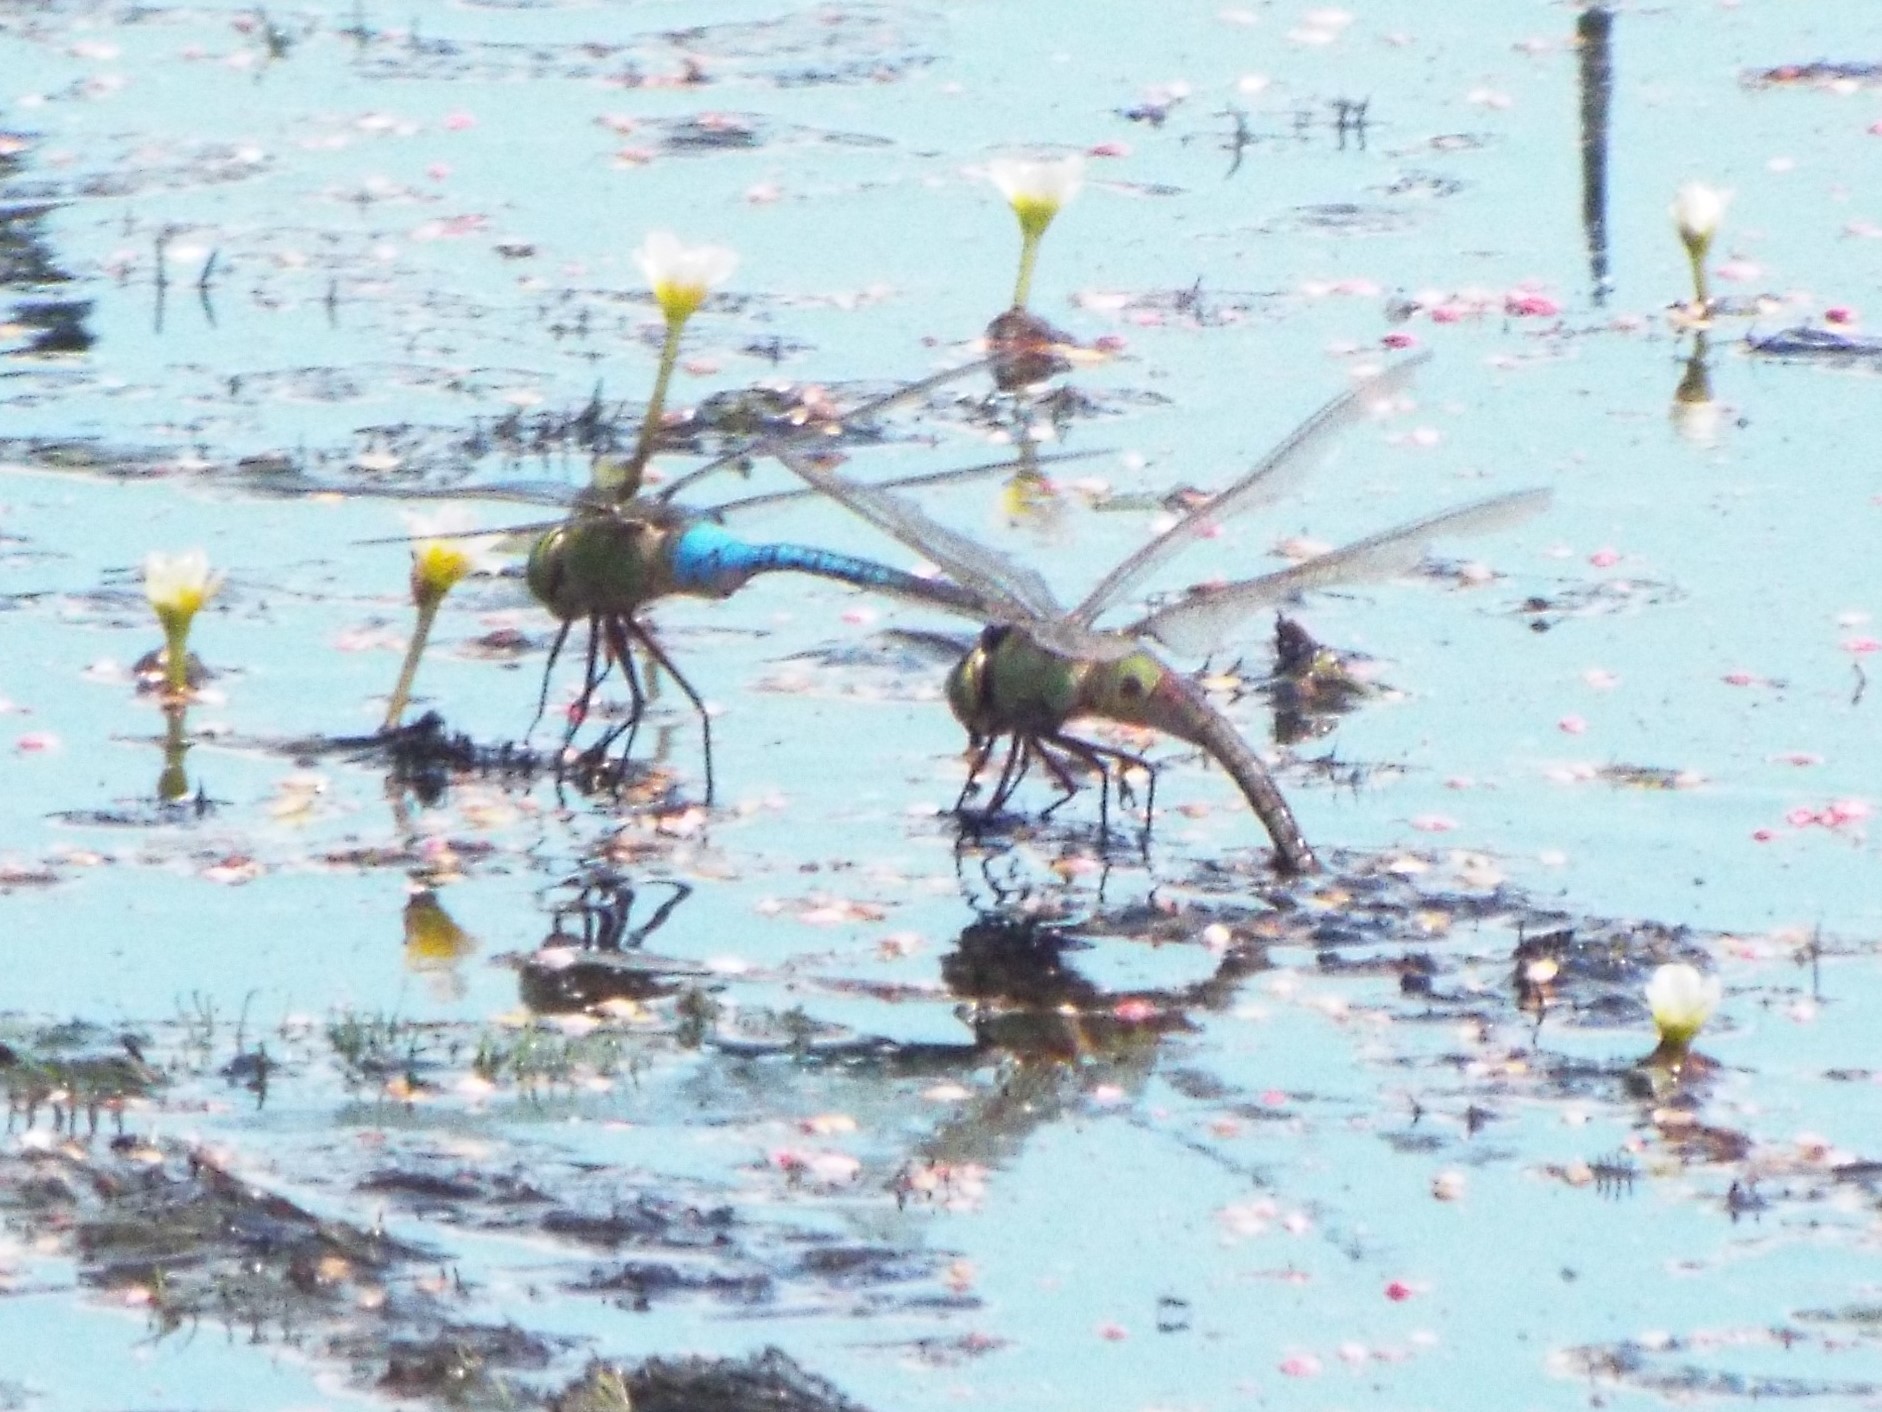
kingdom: Animalia
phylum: Arthropoda
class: Insecta
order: Odonata
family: Aeshnidae
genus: Anax
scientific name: Anax junius
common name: Common green darner
